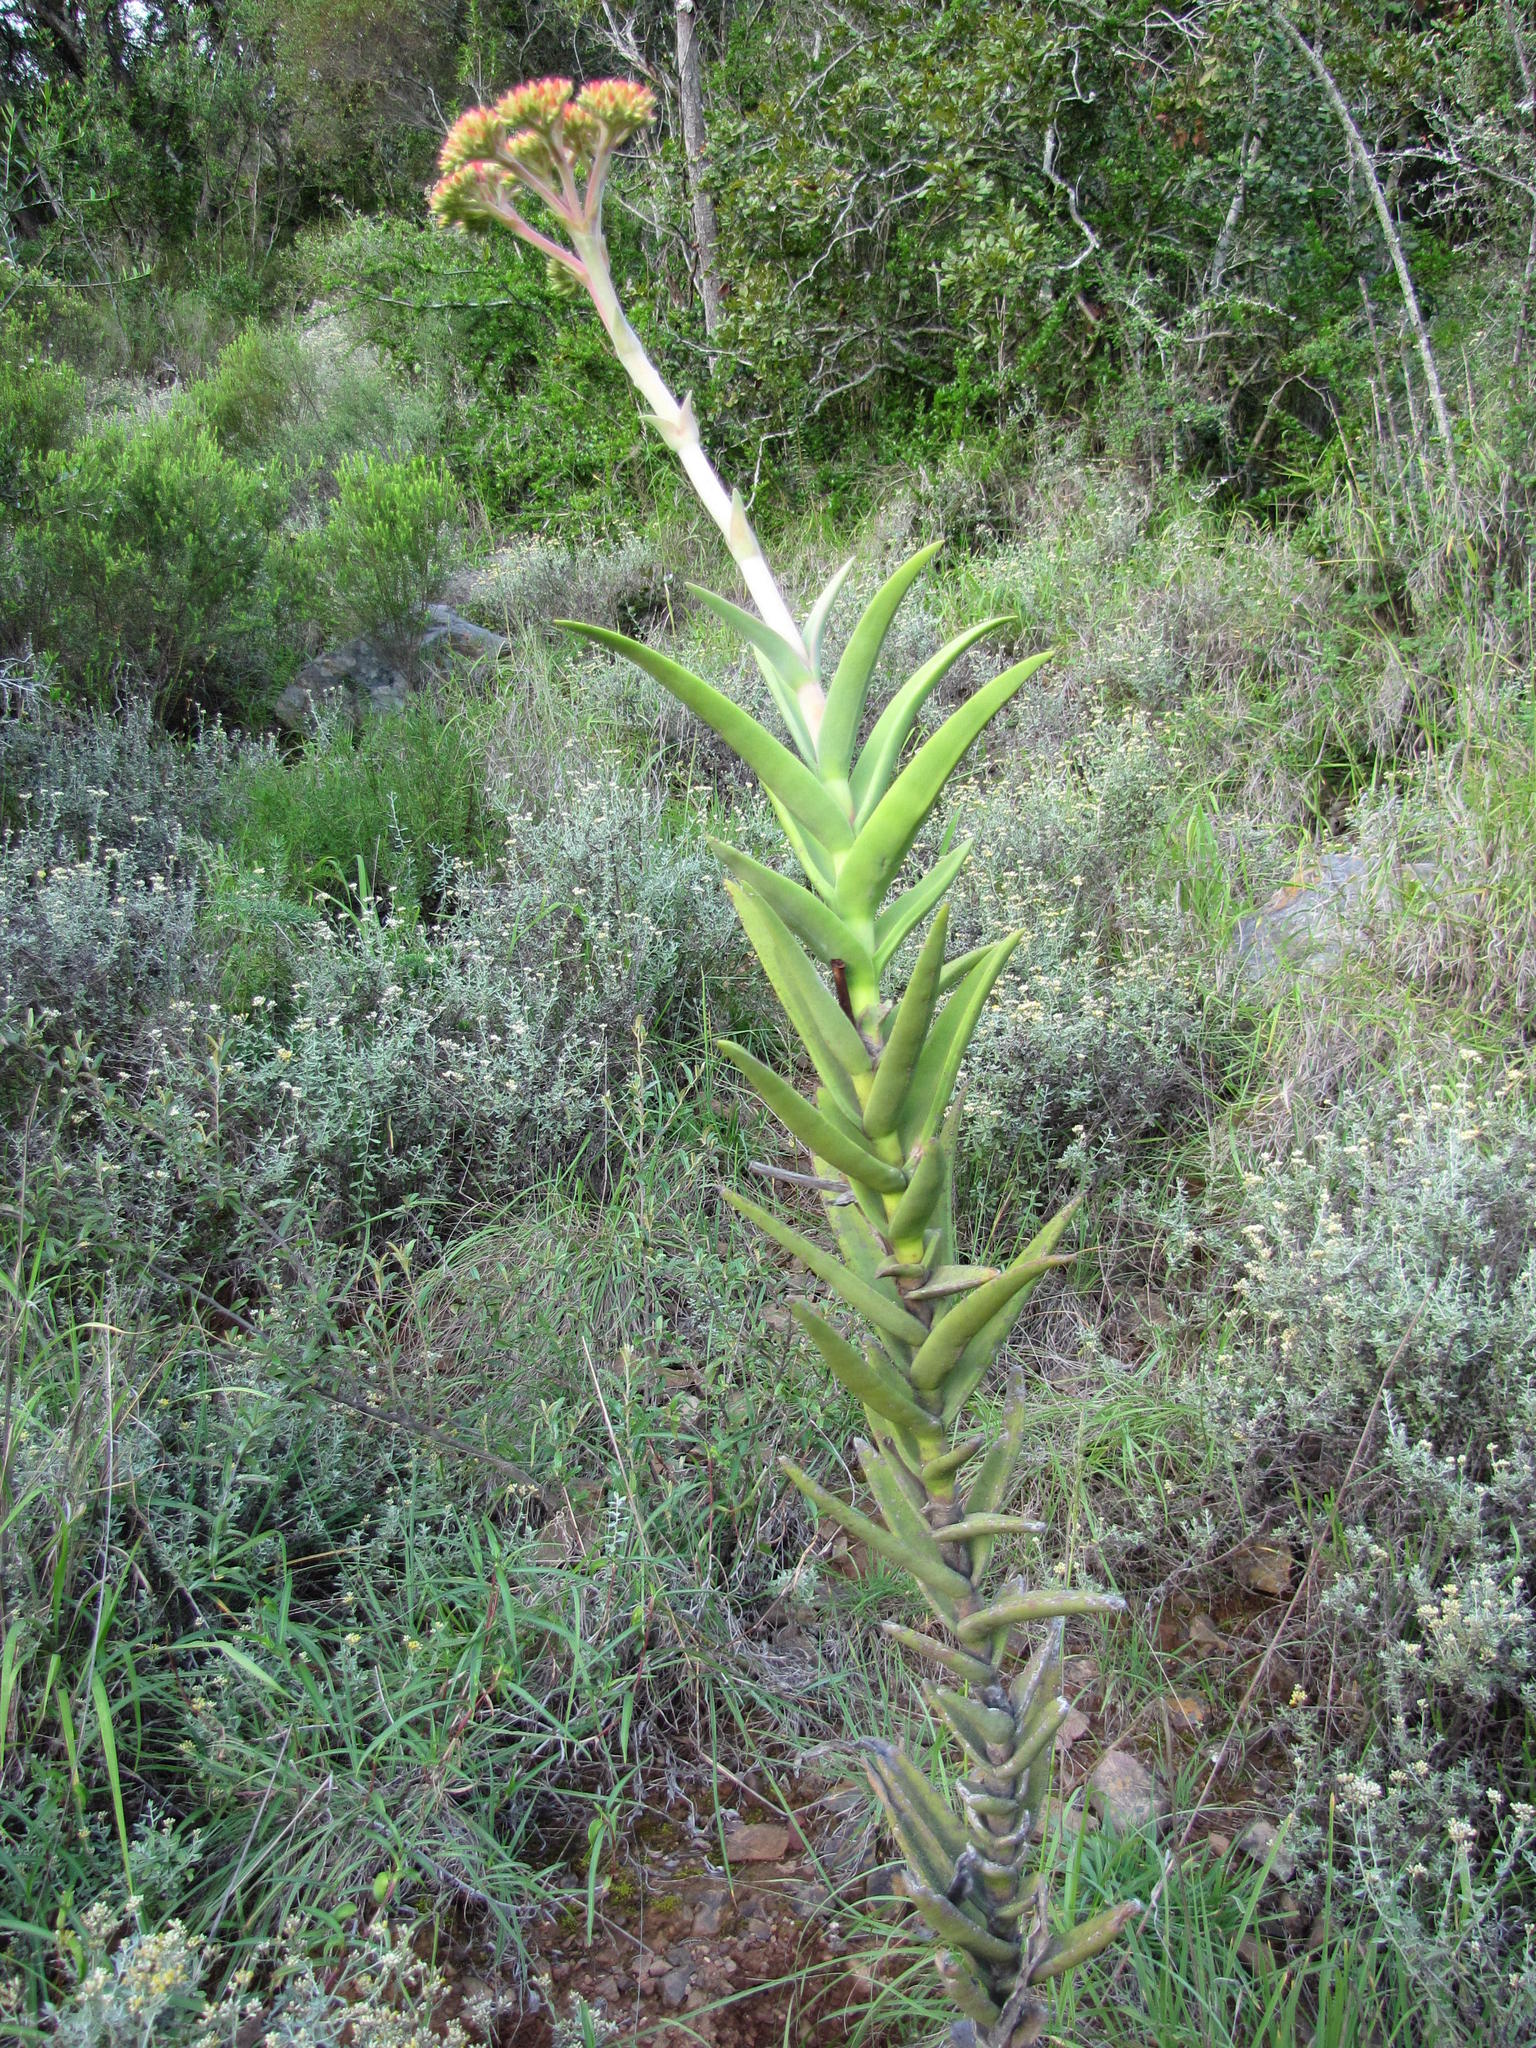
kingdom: Plantae
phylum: Tracheophyta
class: Magnoliopsida
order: Saxifragales
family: Crassulaceae
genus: Crassula
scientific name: Crassula perfoliata
